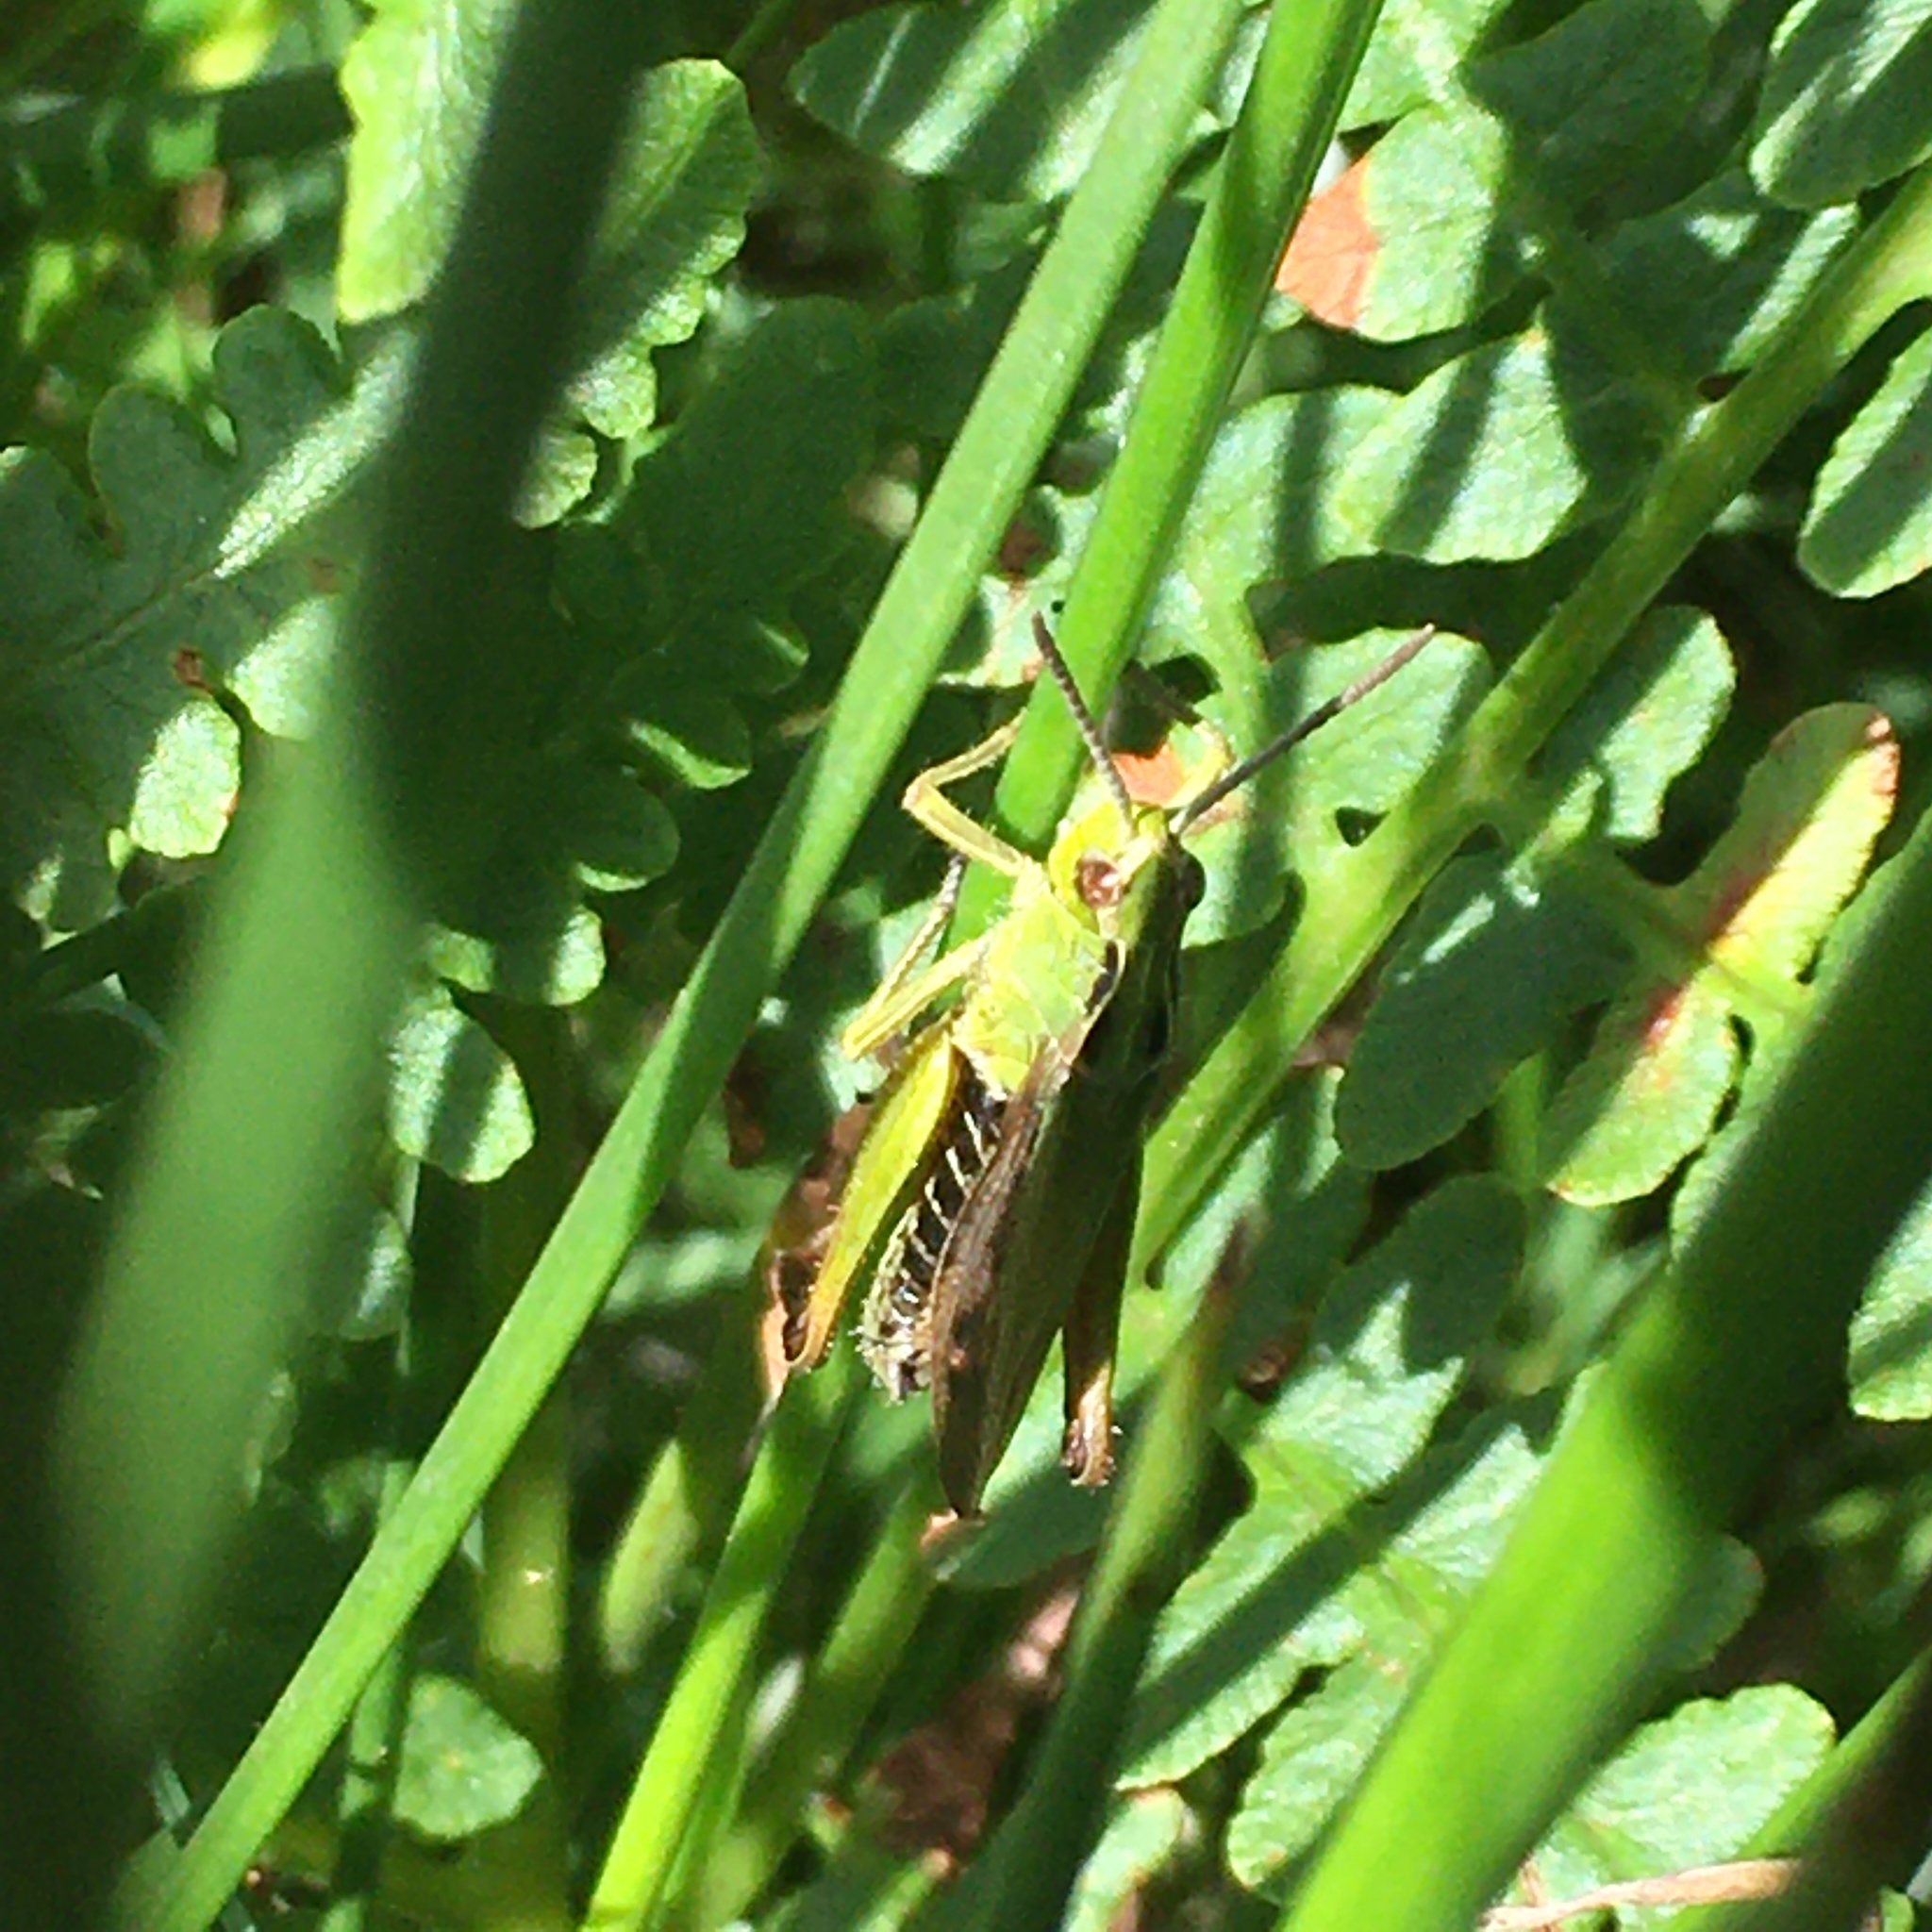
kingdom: Animalia
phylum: Arthropoda
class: Insecta
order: Orthoptera
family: Acrididae
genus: Omocestus
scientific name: Omocestus viridulus
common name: Common green grasshopper
